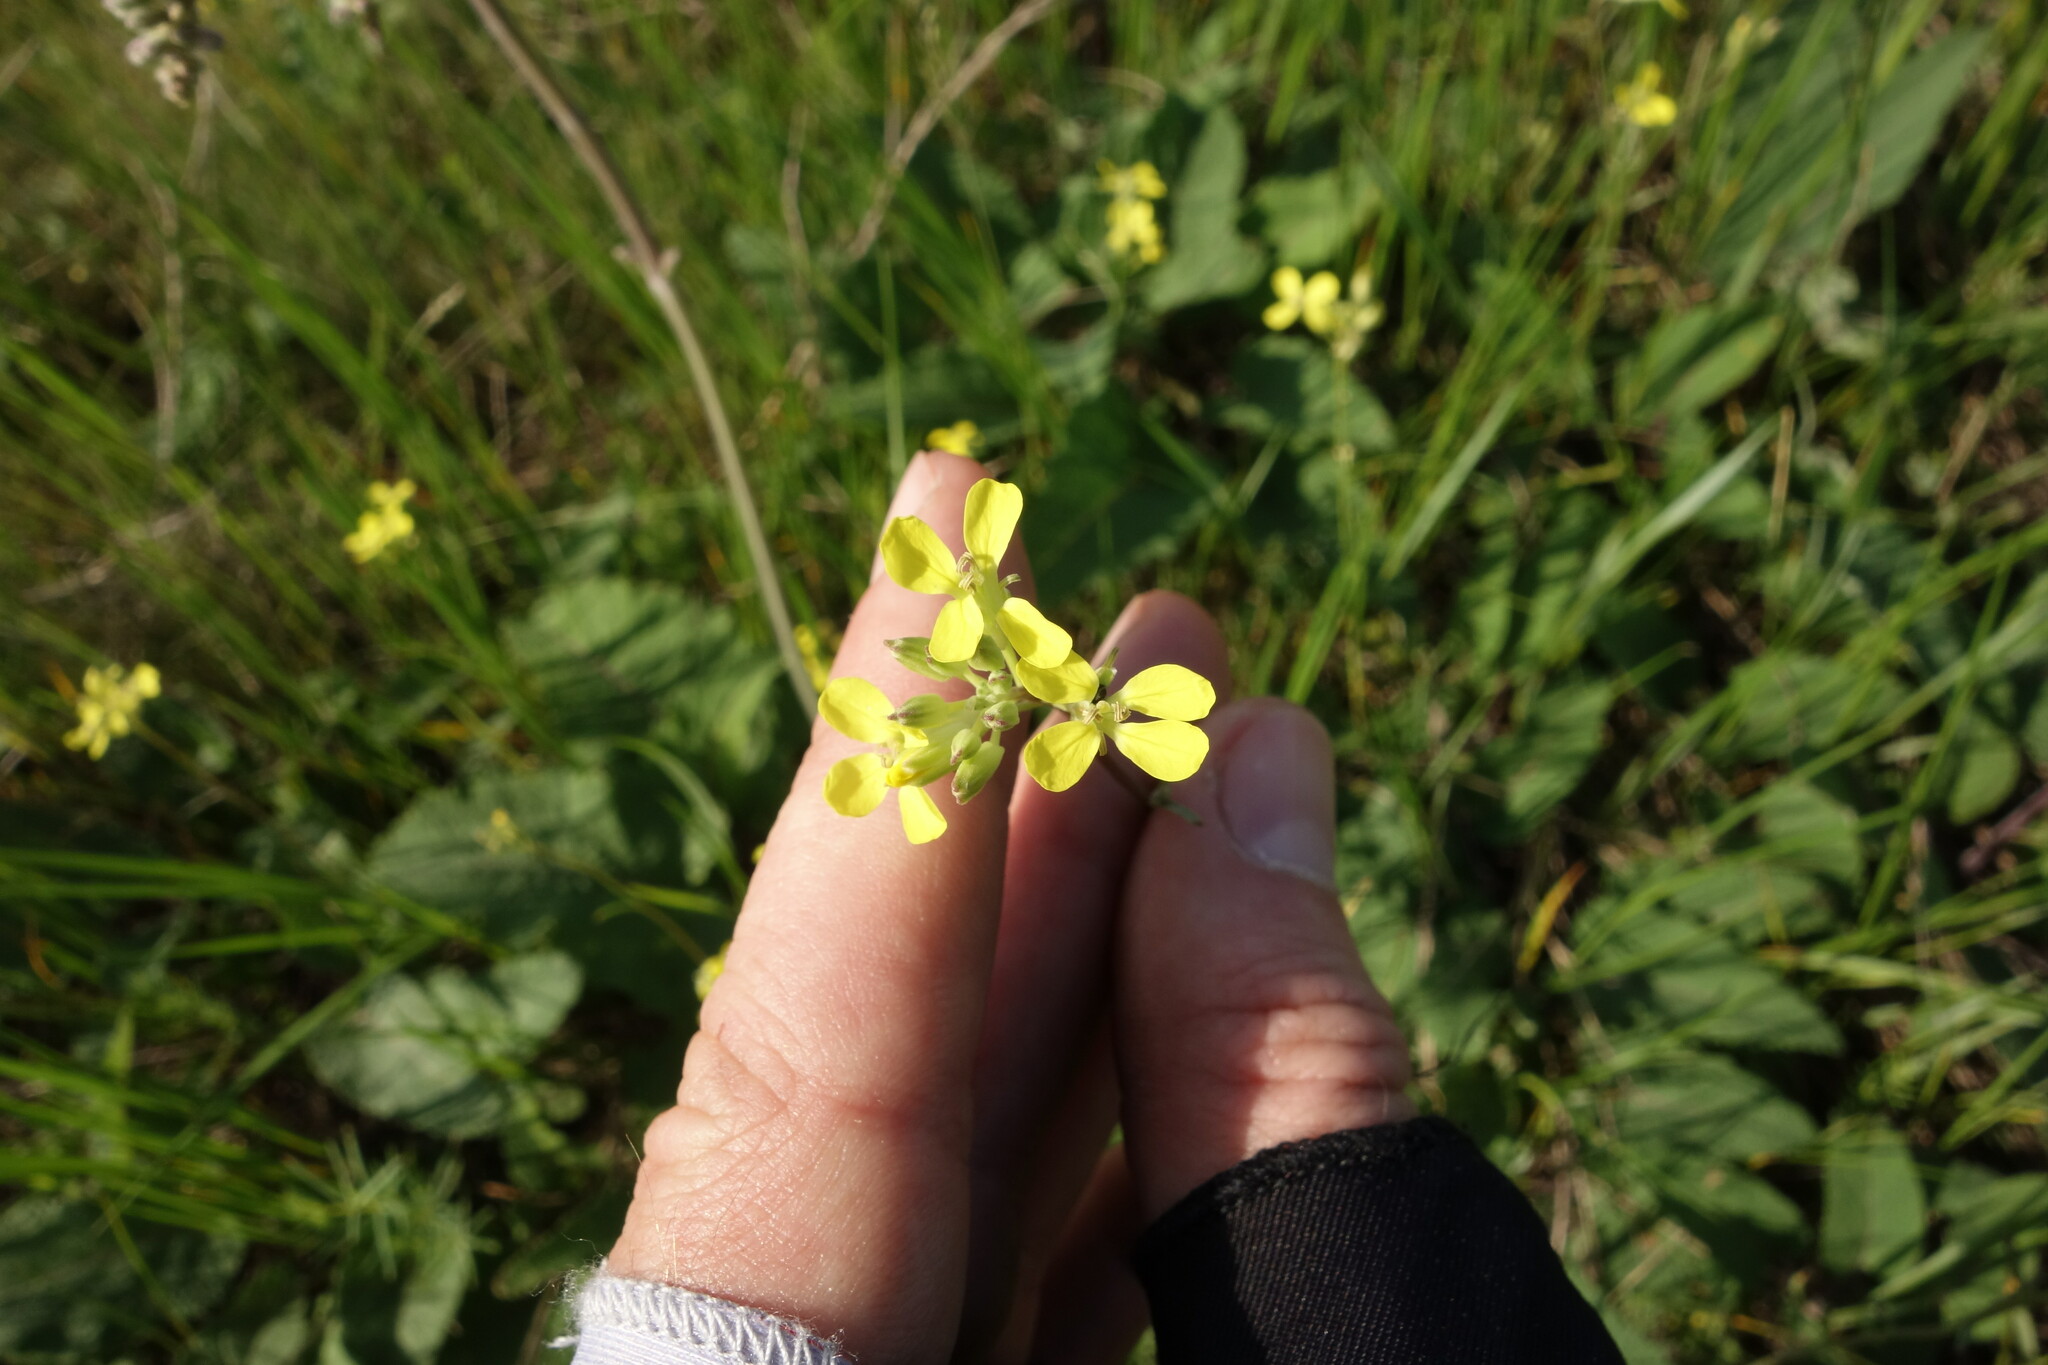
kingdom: Plantae
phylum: Tracheophyta
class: Magnoliopsida
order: Brassicales
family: Brassicaceae
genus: Erysimum
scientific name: Erysimum diffusum
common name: Diffuse wallflower
